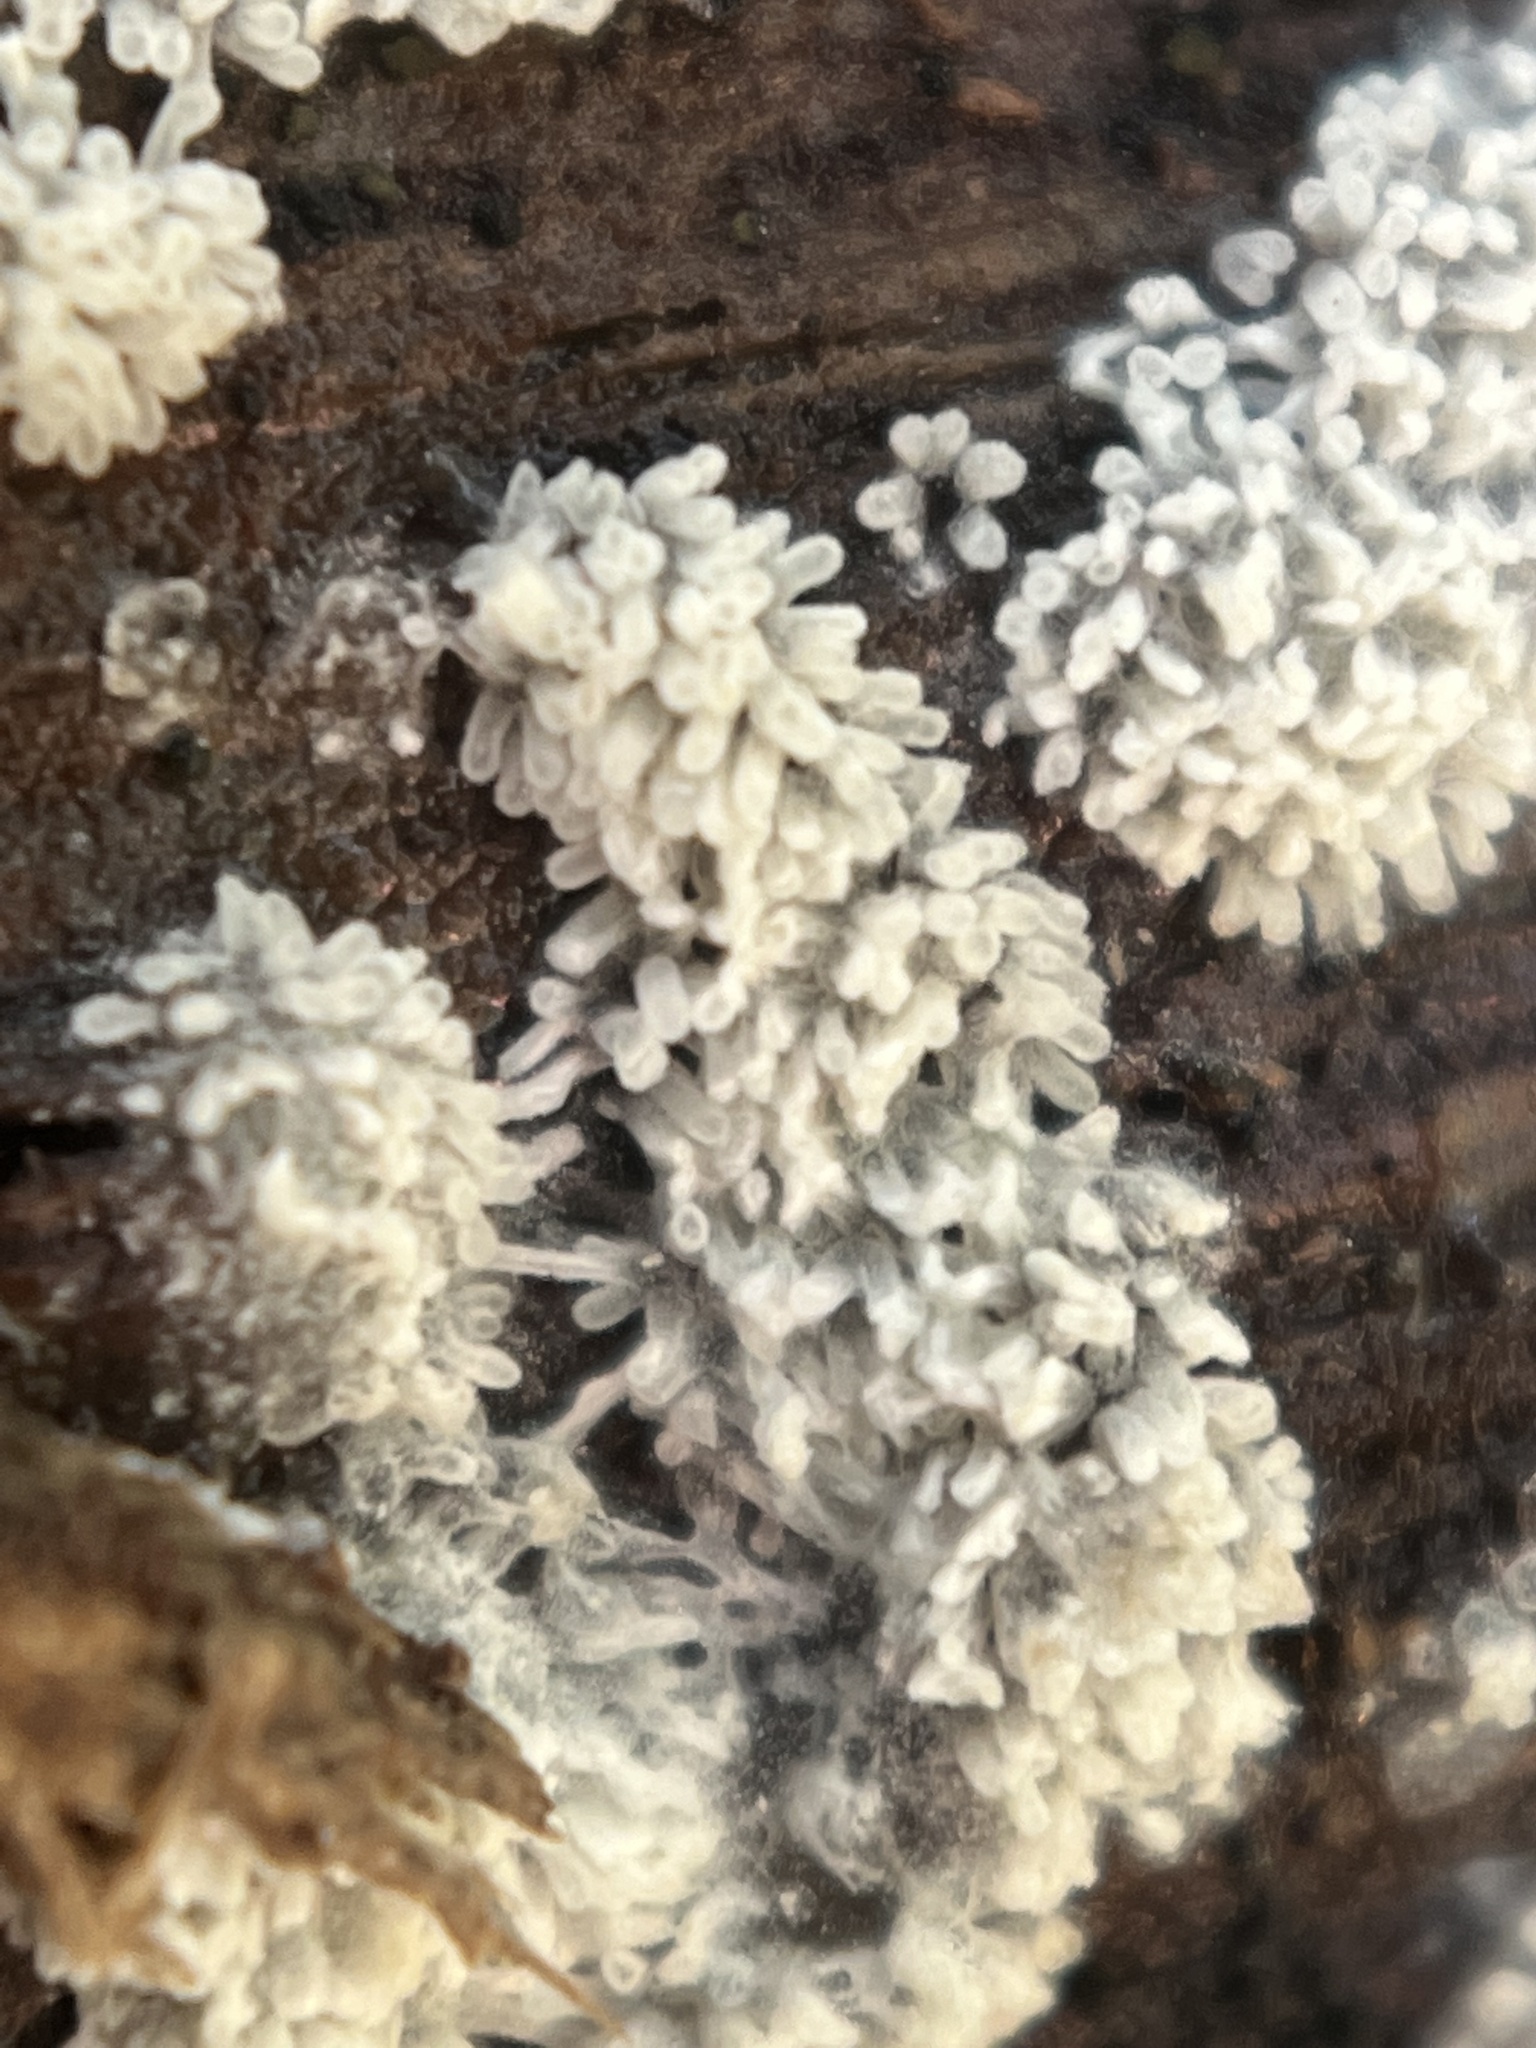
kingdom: Protozoa
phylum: Mycetozoa
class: Protosteliomycetes
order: Ceratiomyxales
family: Ceratiomyxaceae
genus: Ceratiomyxa
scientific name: Ceratiomyxa fruticulosa
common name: Honeycomb coral slime mold
